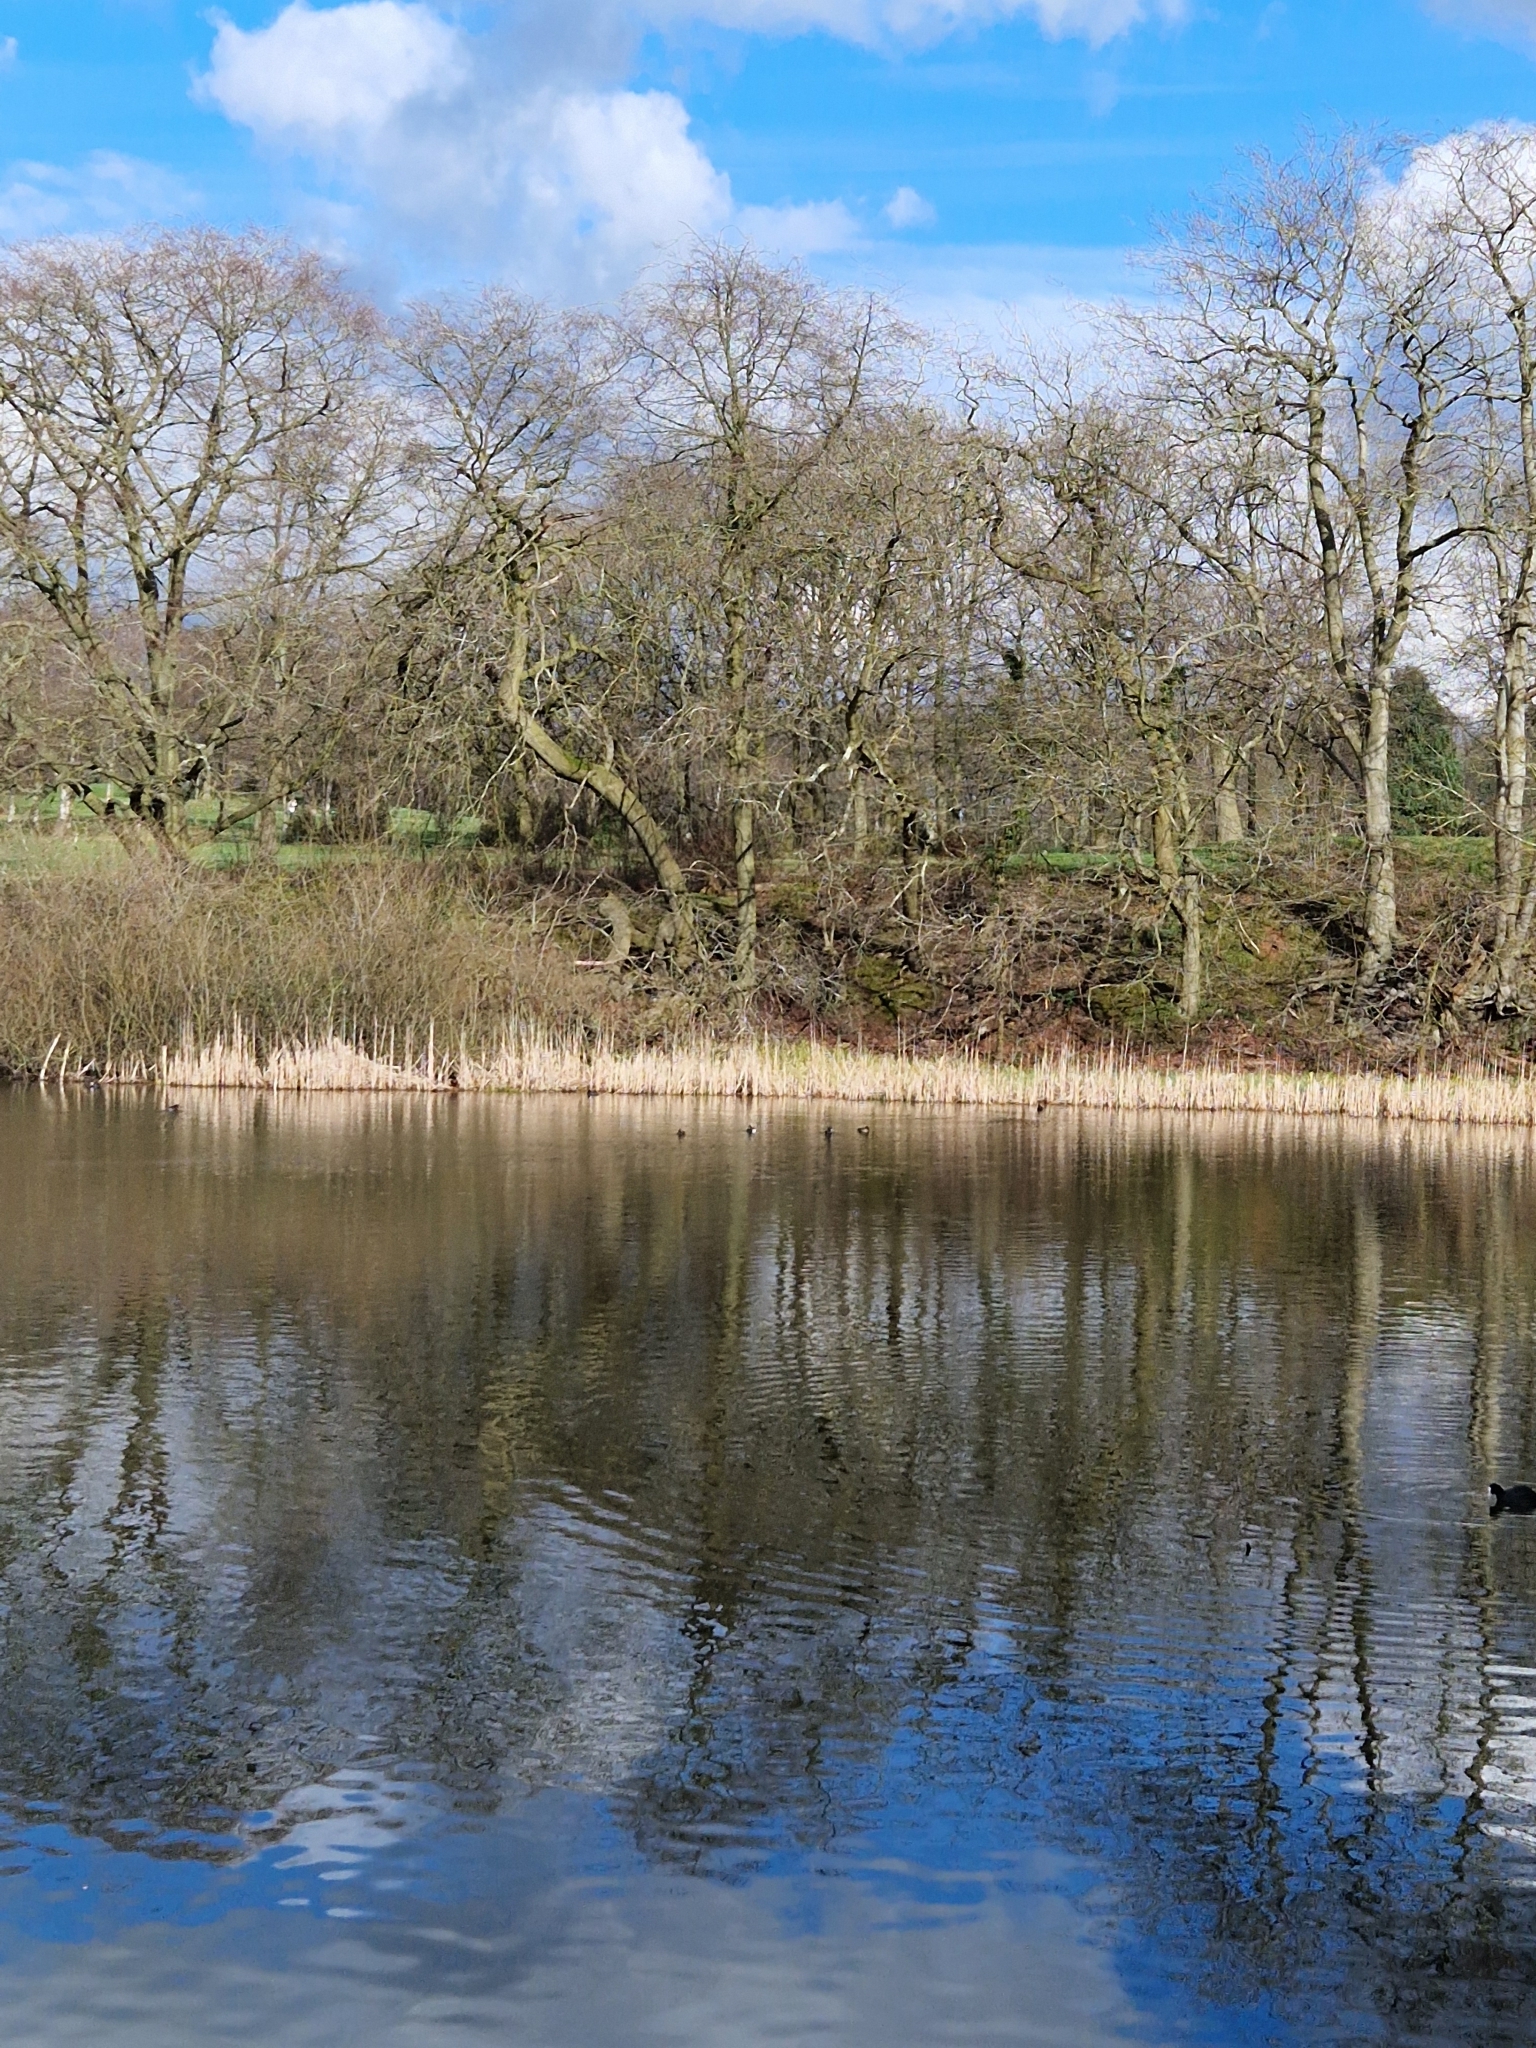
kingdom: Animalia
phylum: Chordata
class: Aves
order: Anseriformes
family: Anatidae
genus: Aythya
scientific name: Aythya fuligula
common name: Tufted duck
